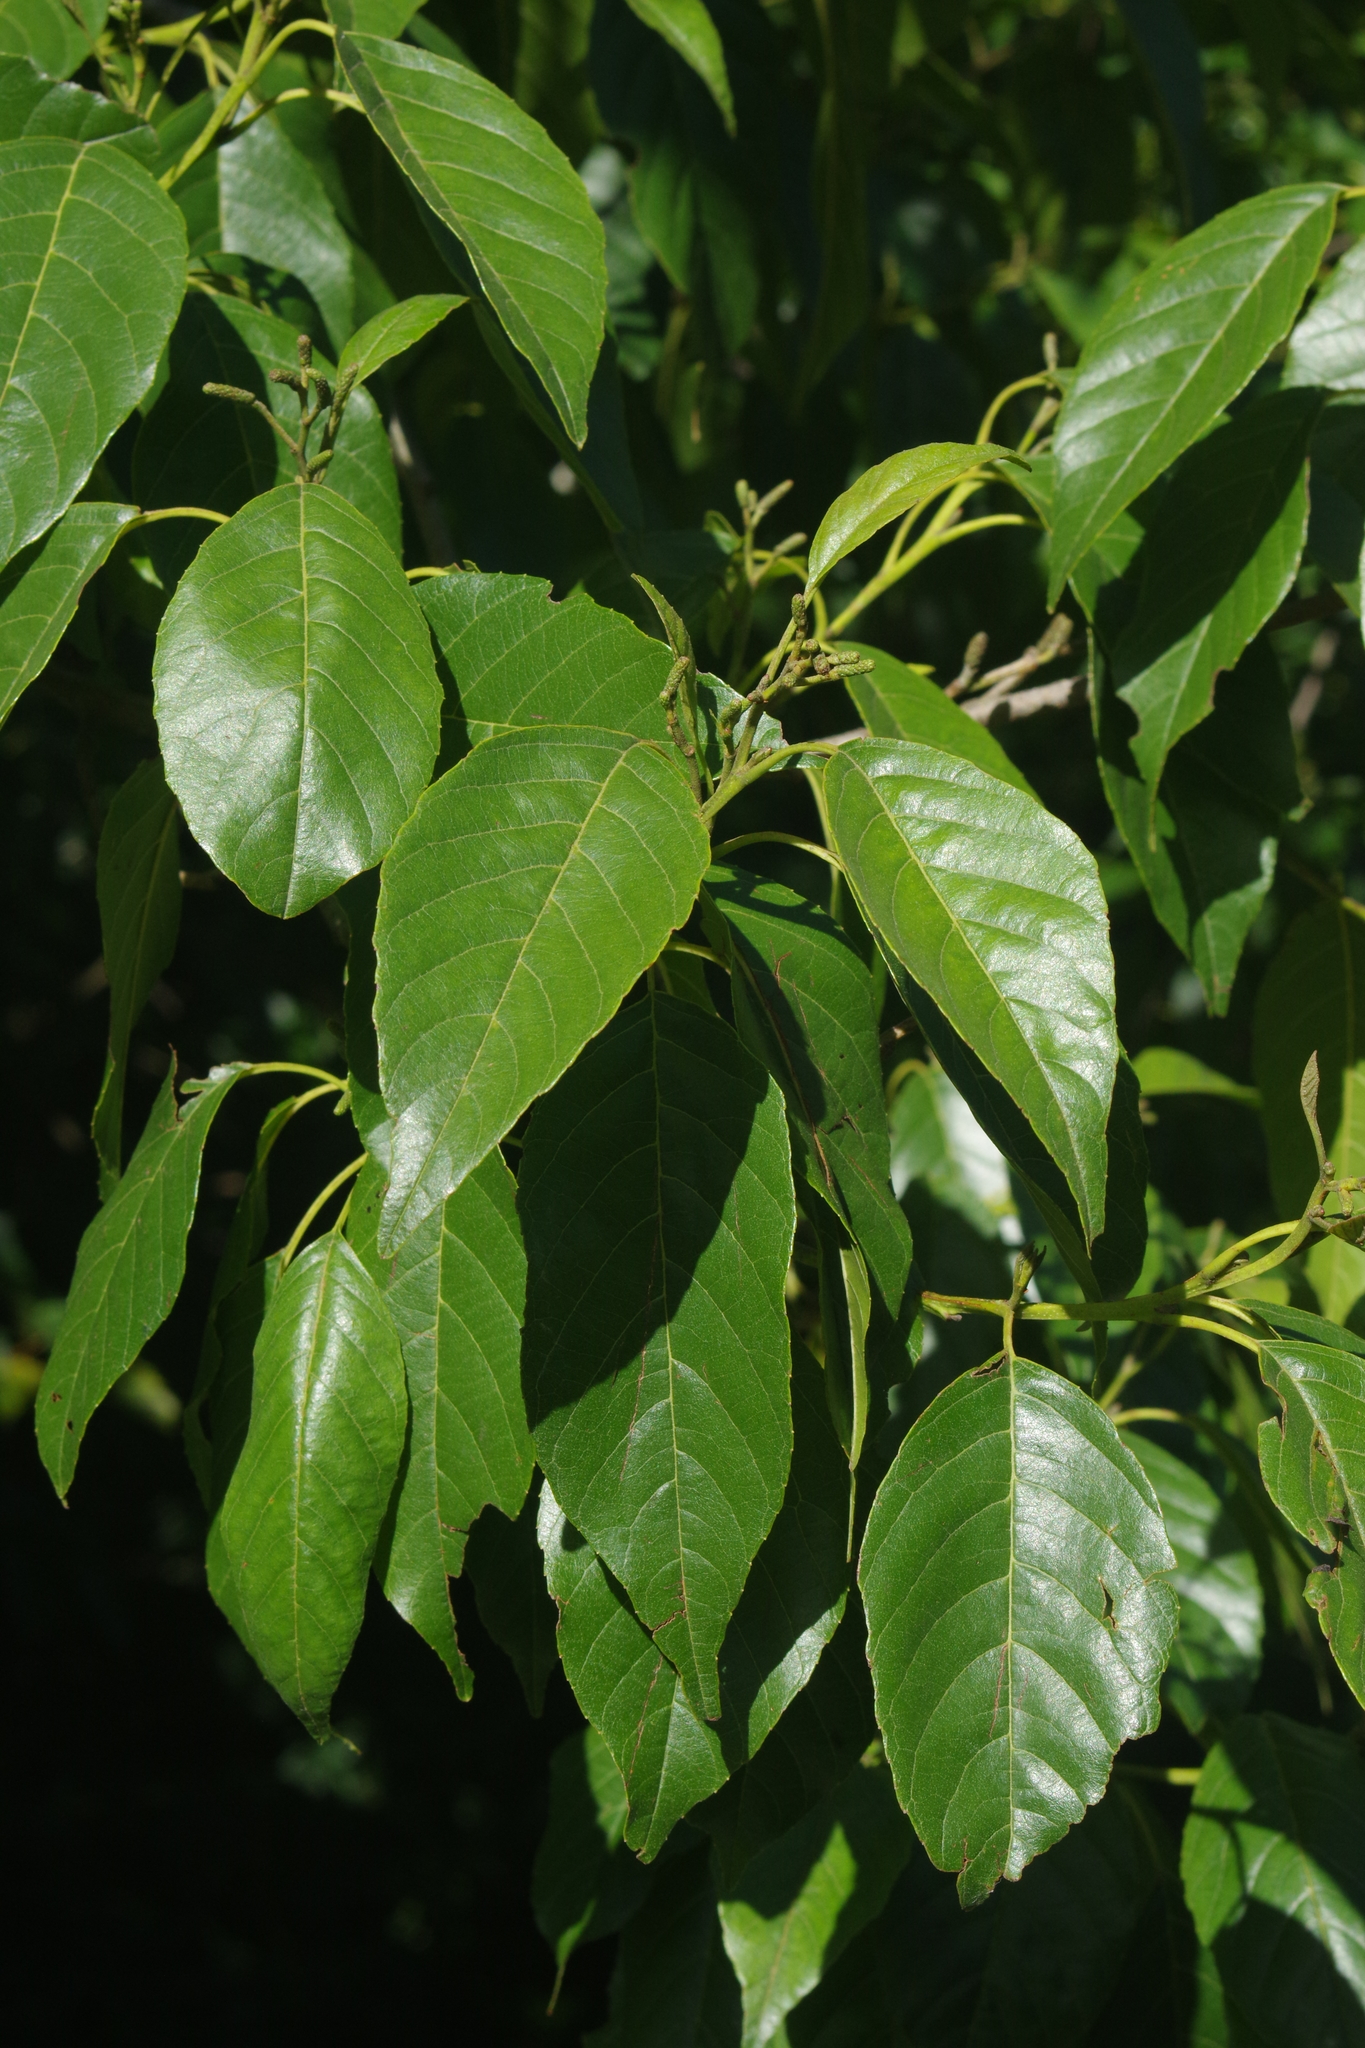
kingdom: Plantae
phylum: Tracheophyta
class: Magnoliopsida
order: Fagales
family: Betulaceae
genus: Alnus
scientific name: Alnus formosana
